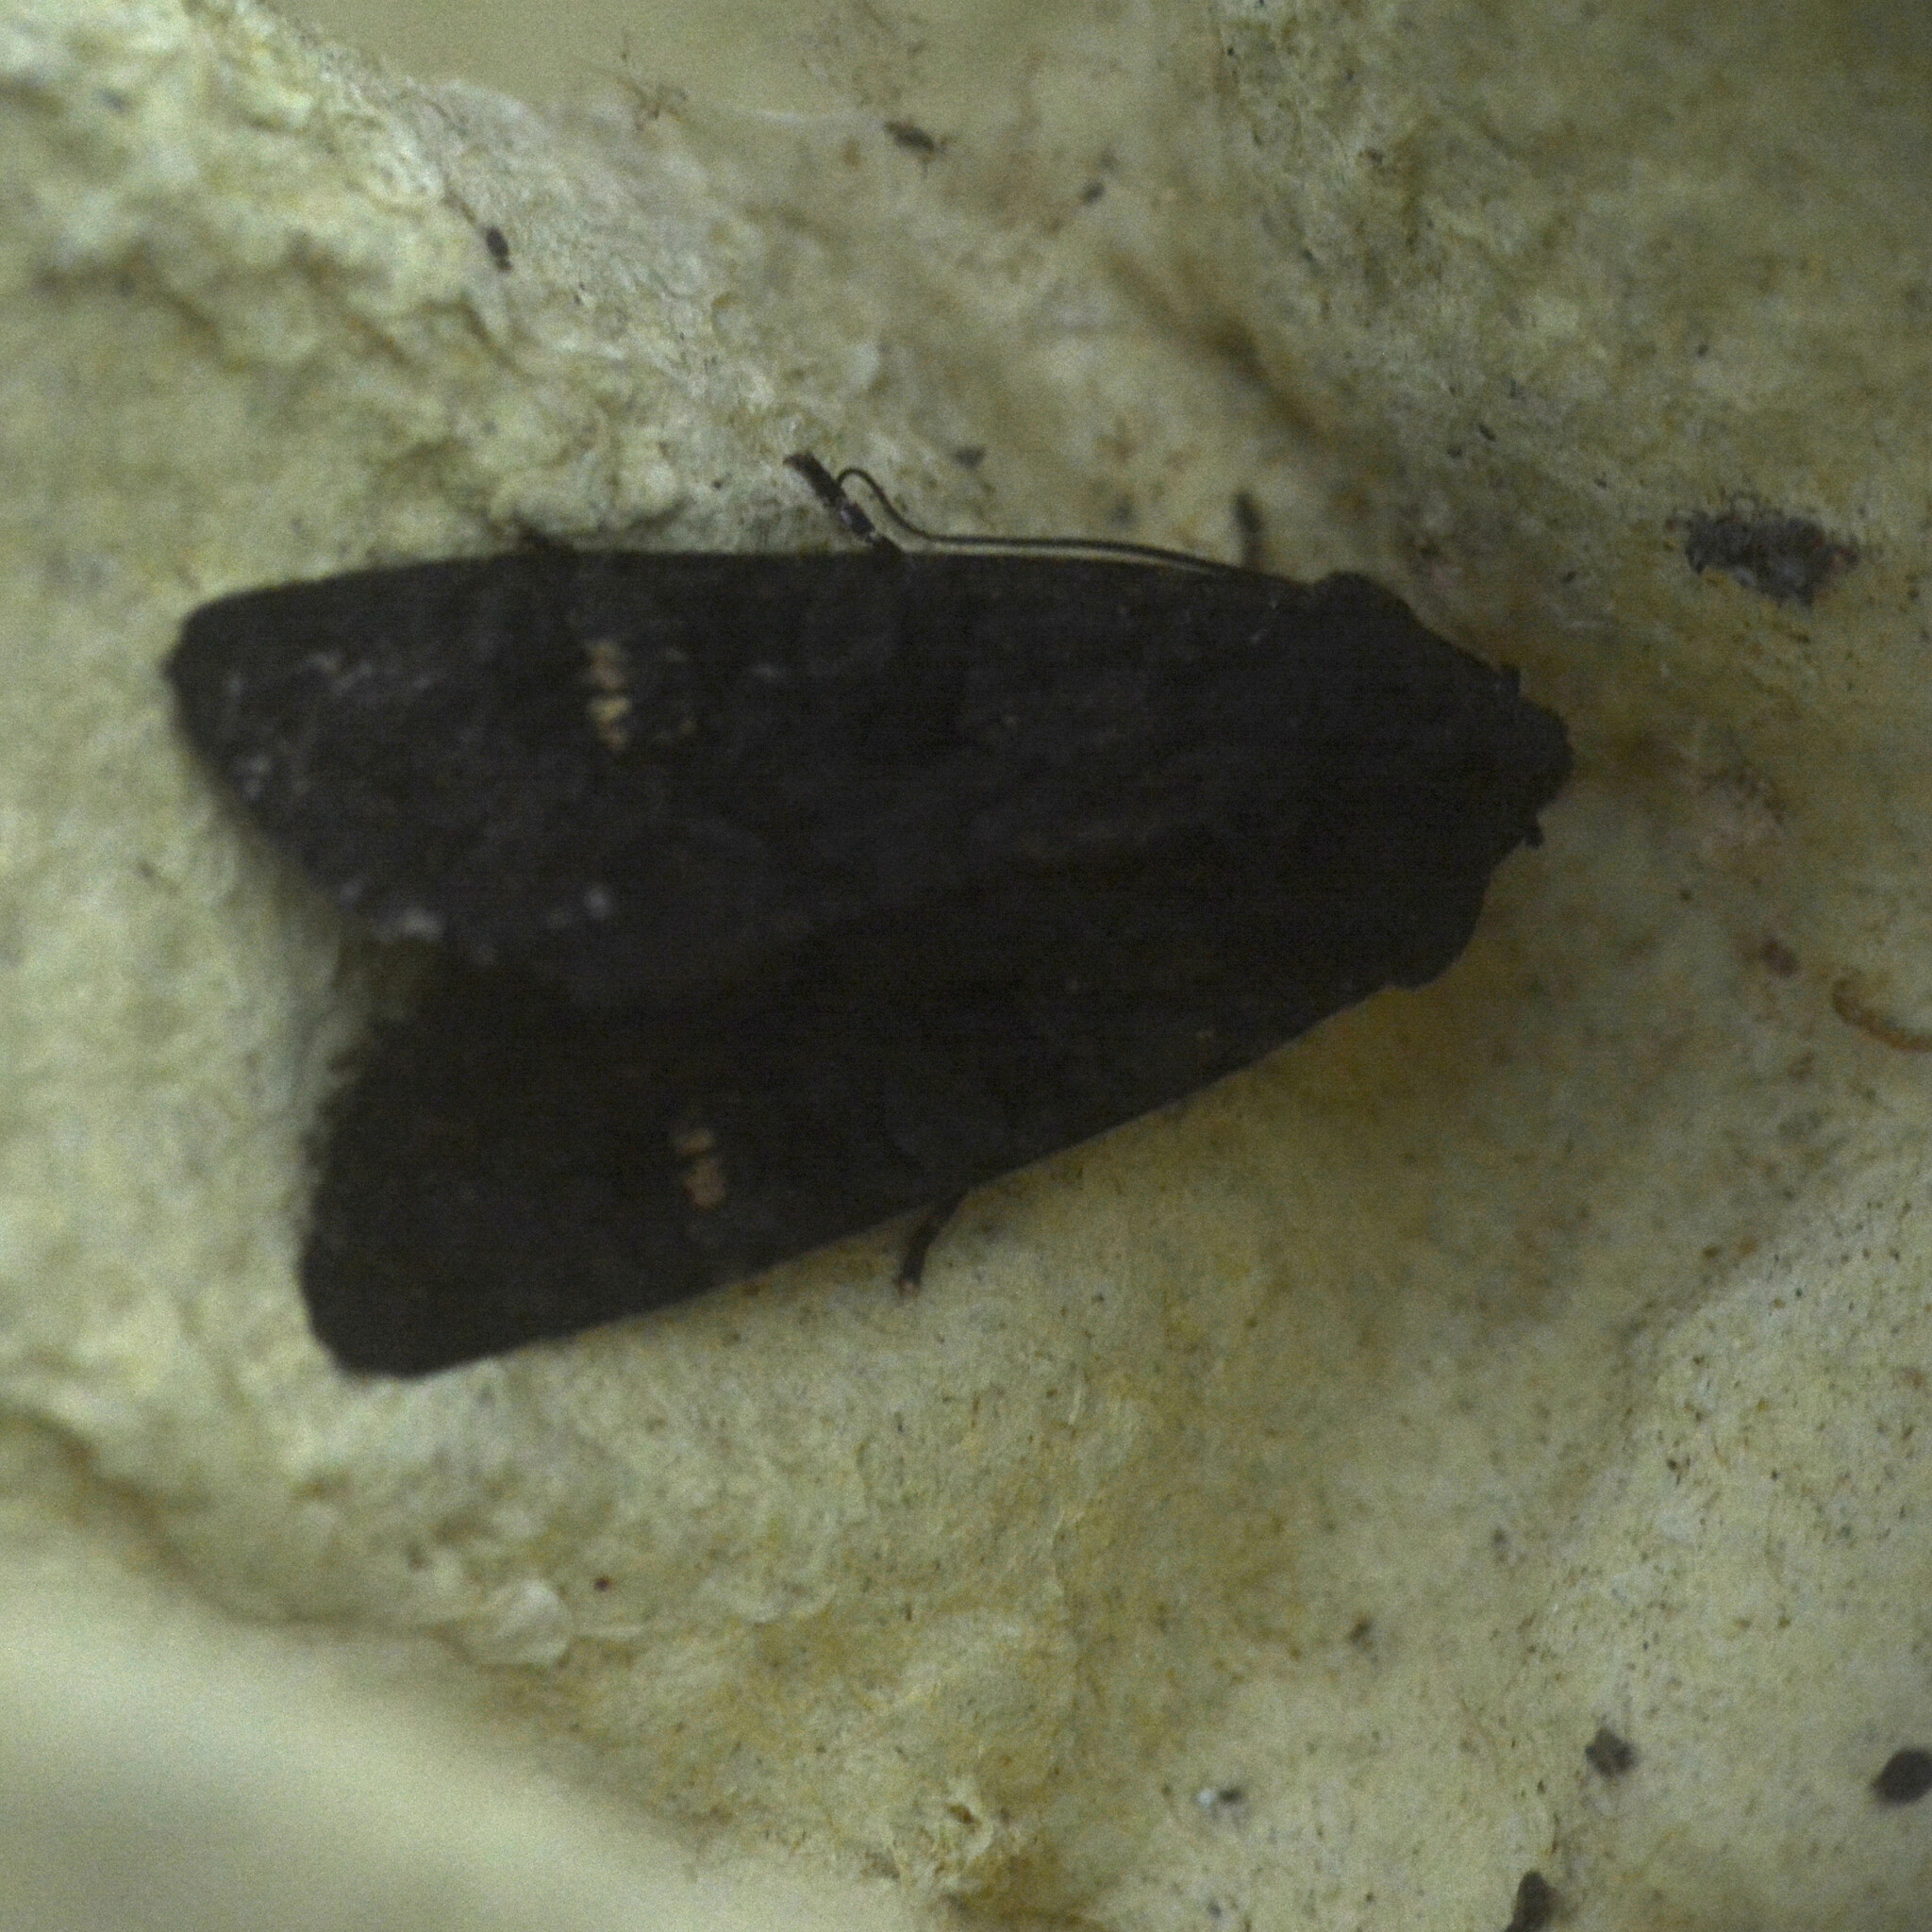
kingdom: Animalia
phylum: Arthropoda
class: Insecta
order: Lepidoptera
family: Noctuidae
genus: Aporophyla
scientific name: Aporophyla nigra
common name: Black rustic
